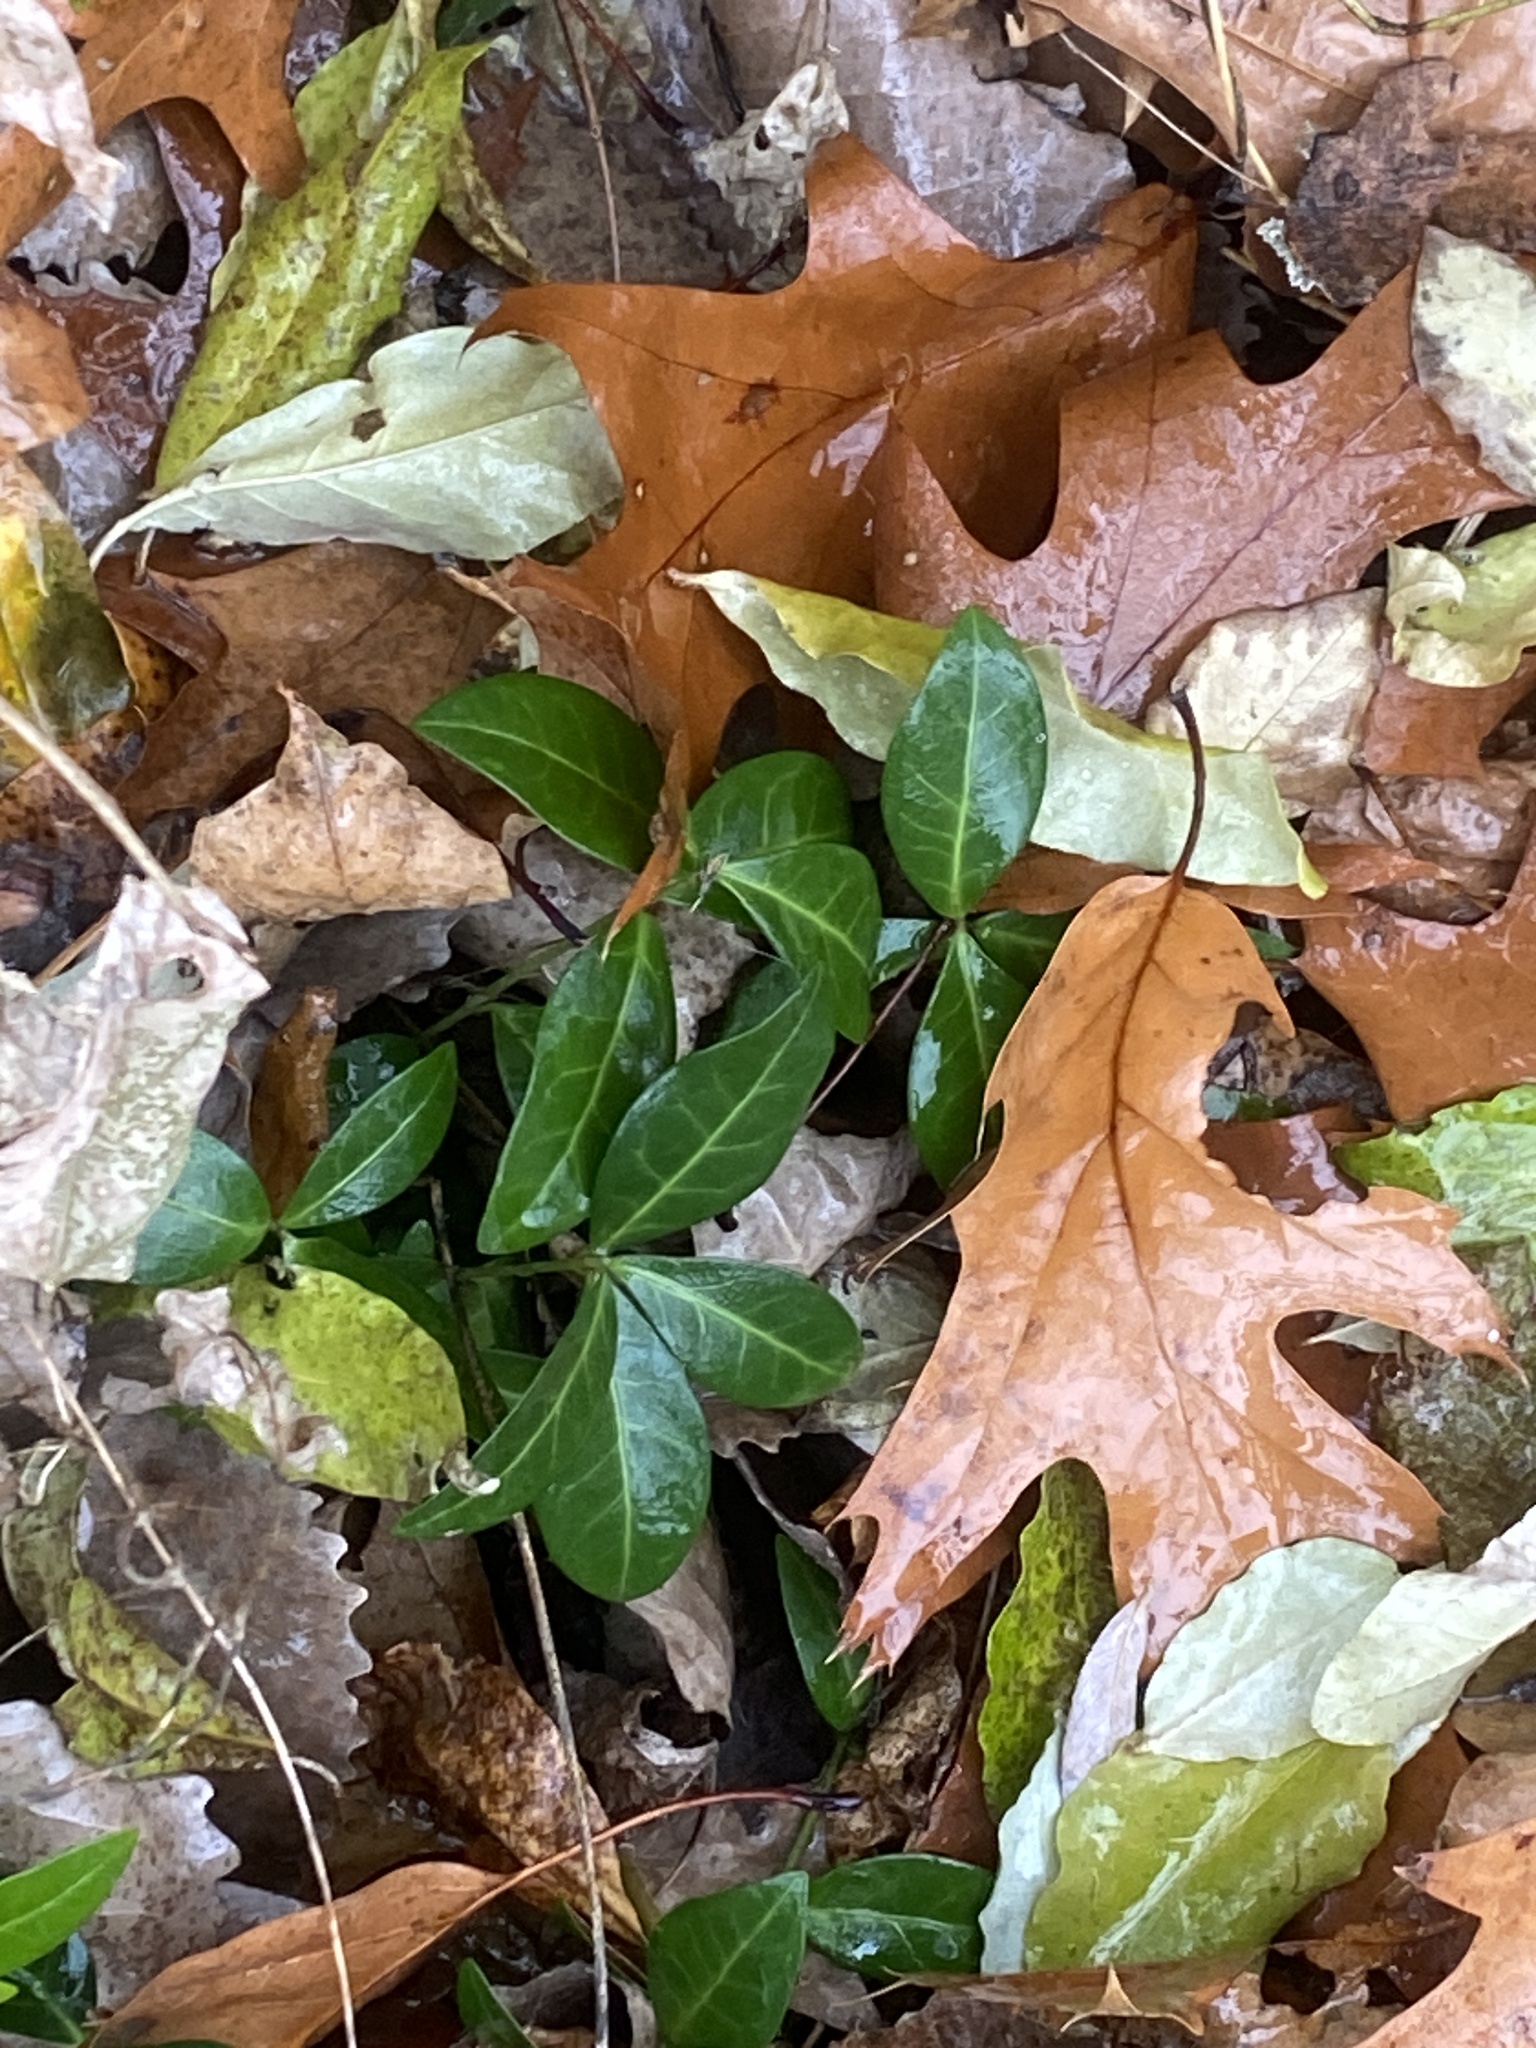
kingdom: Plantae
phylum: Tracheophyta
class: Magnoliopsida
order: Gentianales
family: Apocynaceae
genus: Vinca
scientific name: Vinca minor
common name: Lesser periwinkle
